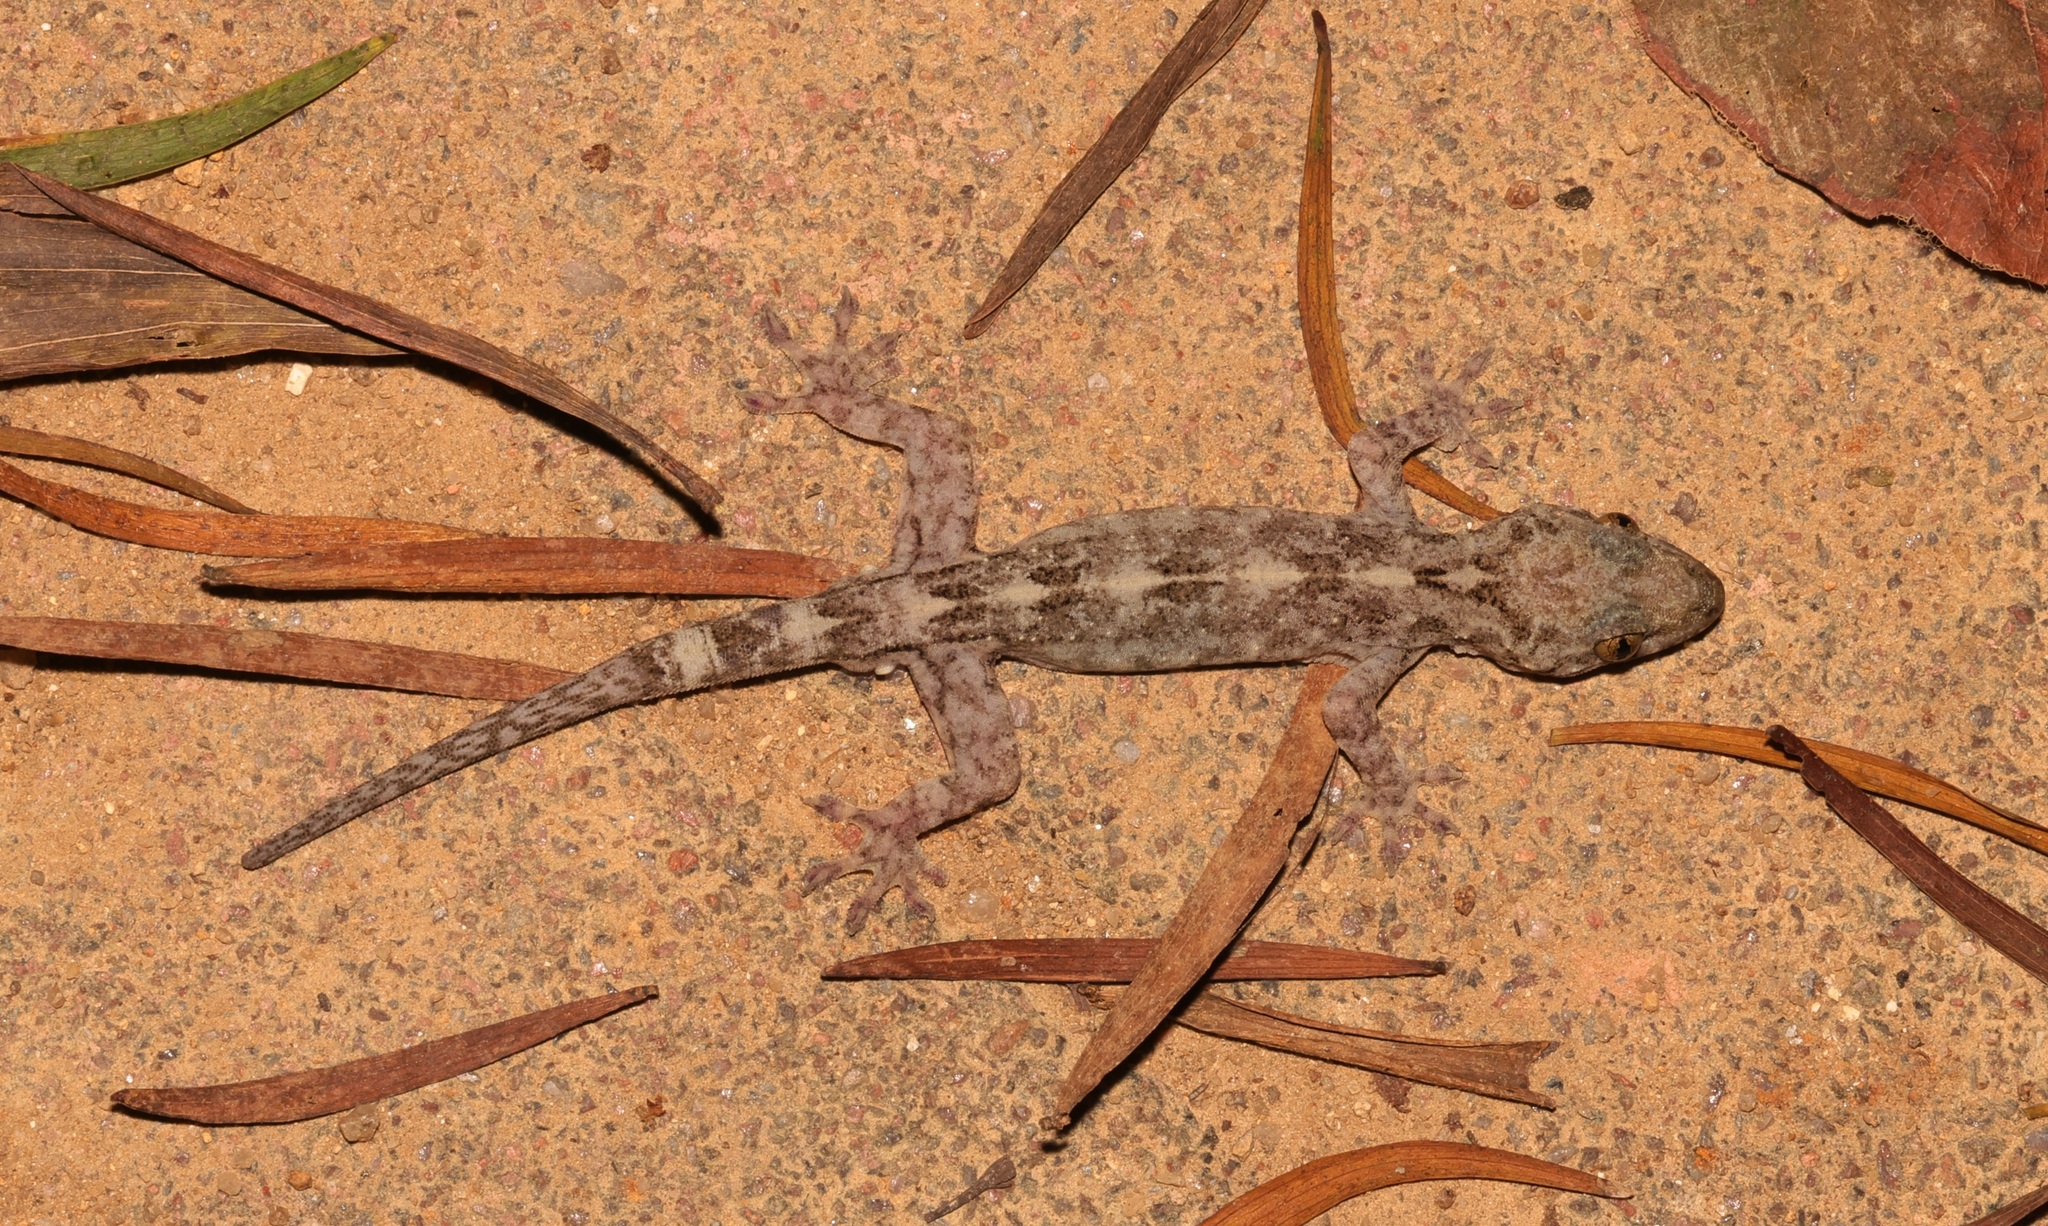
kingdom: Animalia
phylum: Chordata
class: Squamata
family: Gekkonidae
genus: Gekko
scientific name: Gekko chinensis
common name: Gray's chinese gecko
